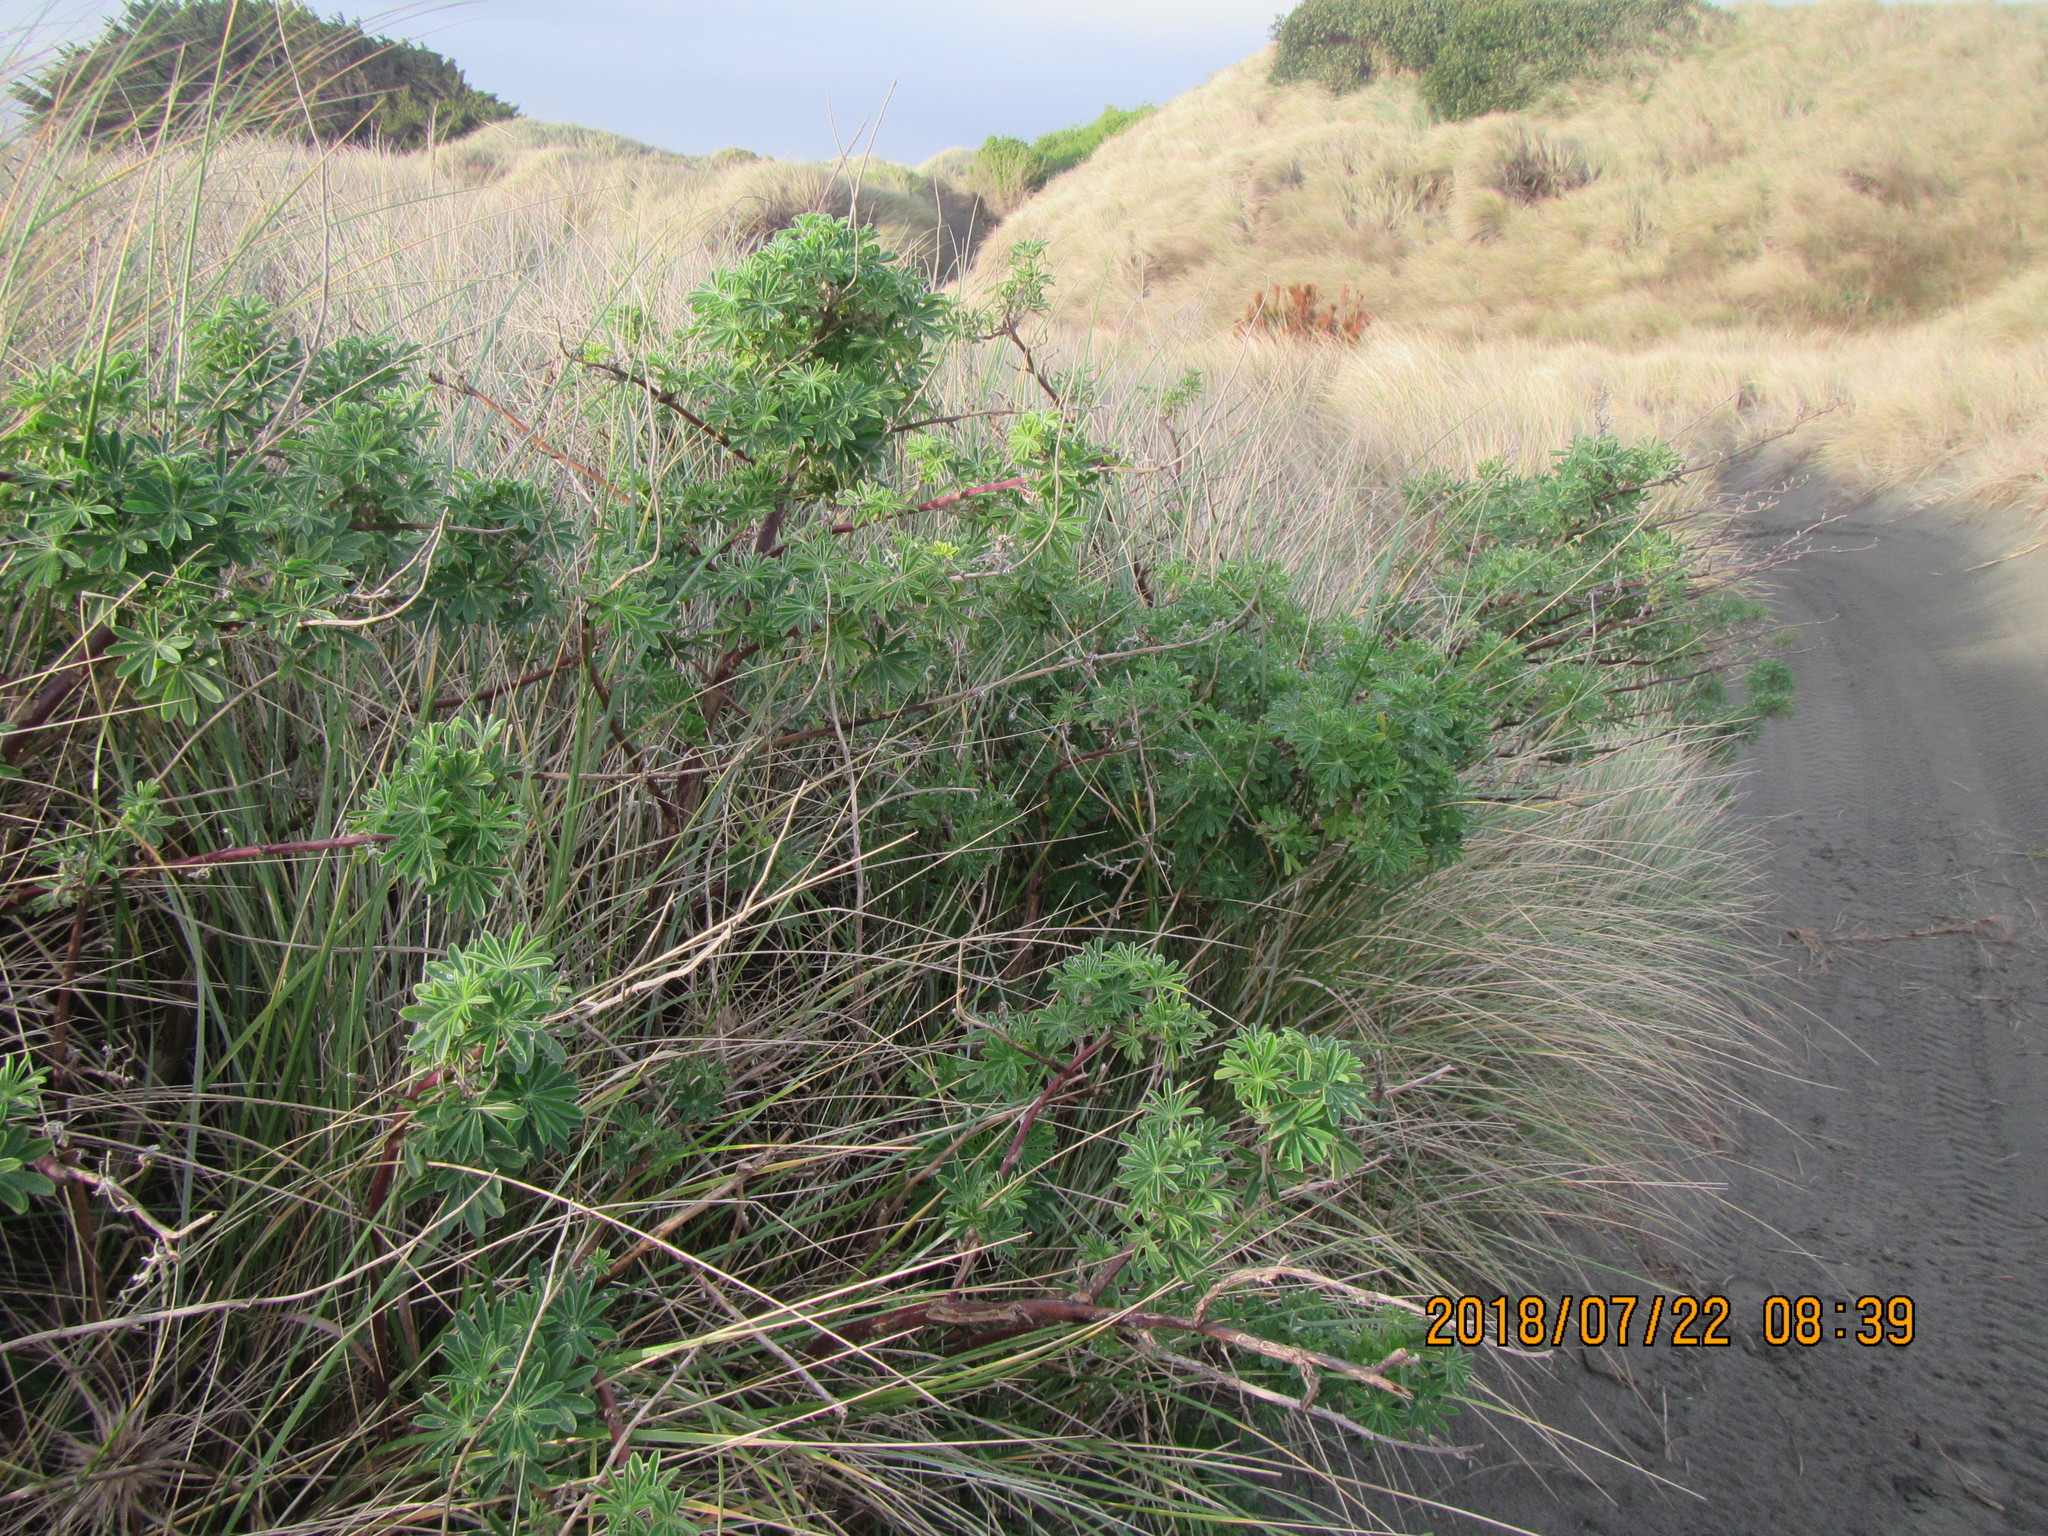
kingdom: Plantae
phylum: Tracheophyta
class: Magnoliopsida
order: Fabales
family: Fabaceae
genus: Lupinus
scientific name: Lupinus arboreus
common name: Yellow bush lupine
